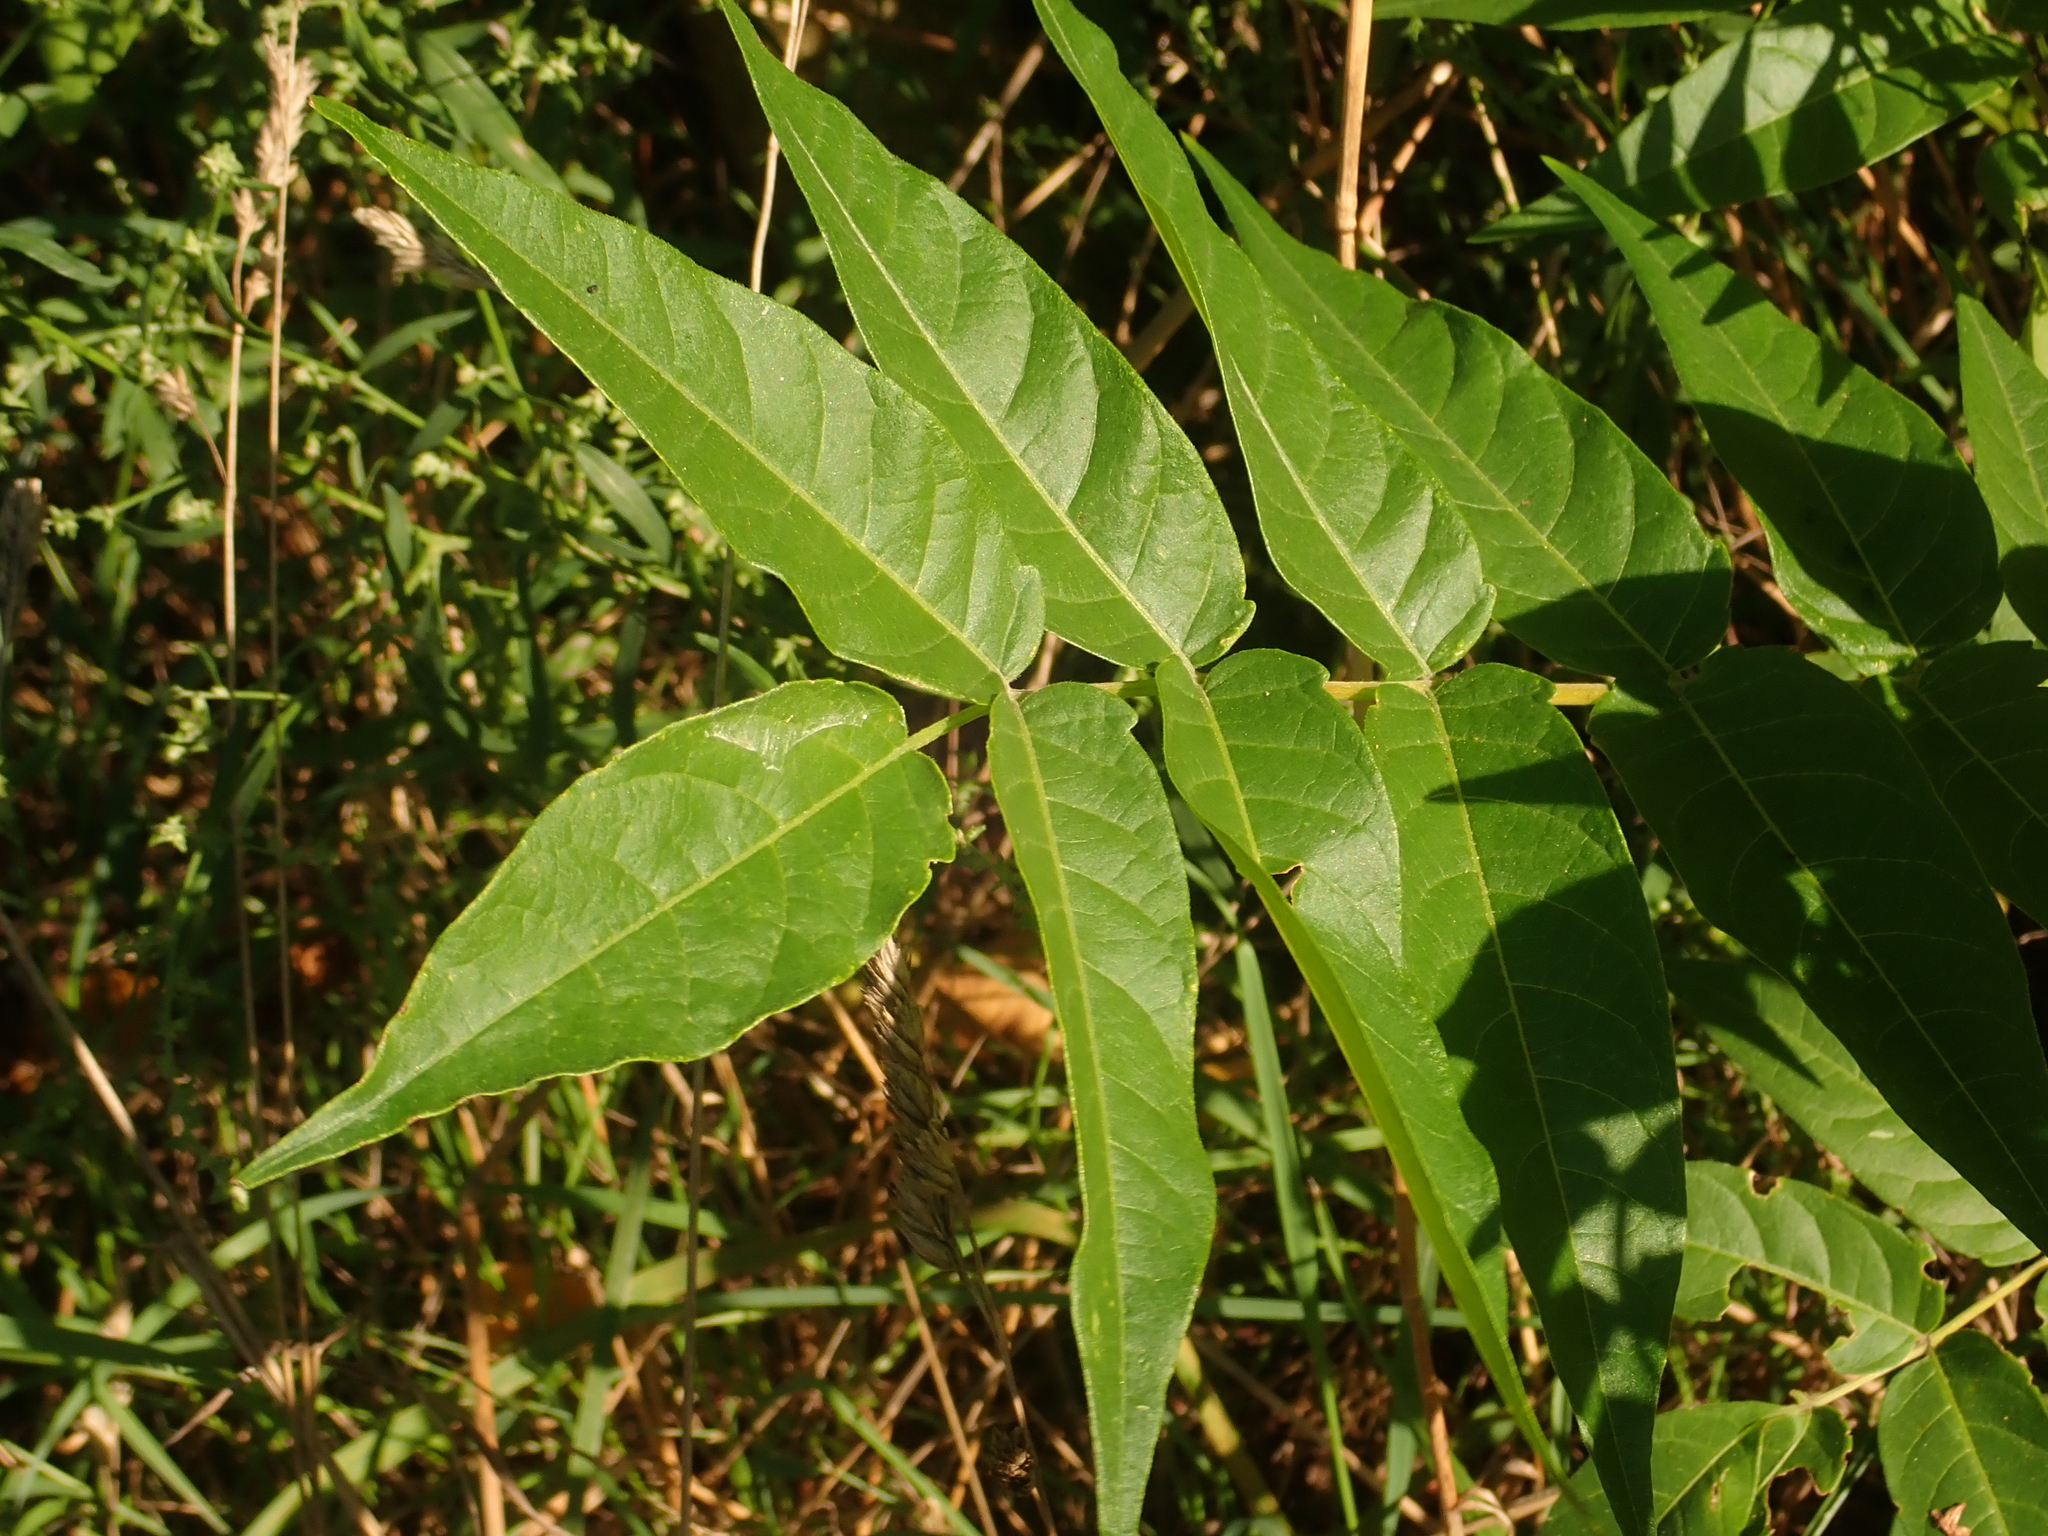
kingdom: Plantae
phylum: Tracheophyta
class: Magnoliopsida
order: Sapindales
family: Simaroubaceae
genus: Ailanthus
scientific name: Ailanthus altissima
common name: Tree-of-heaven
